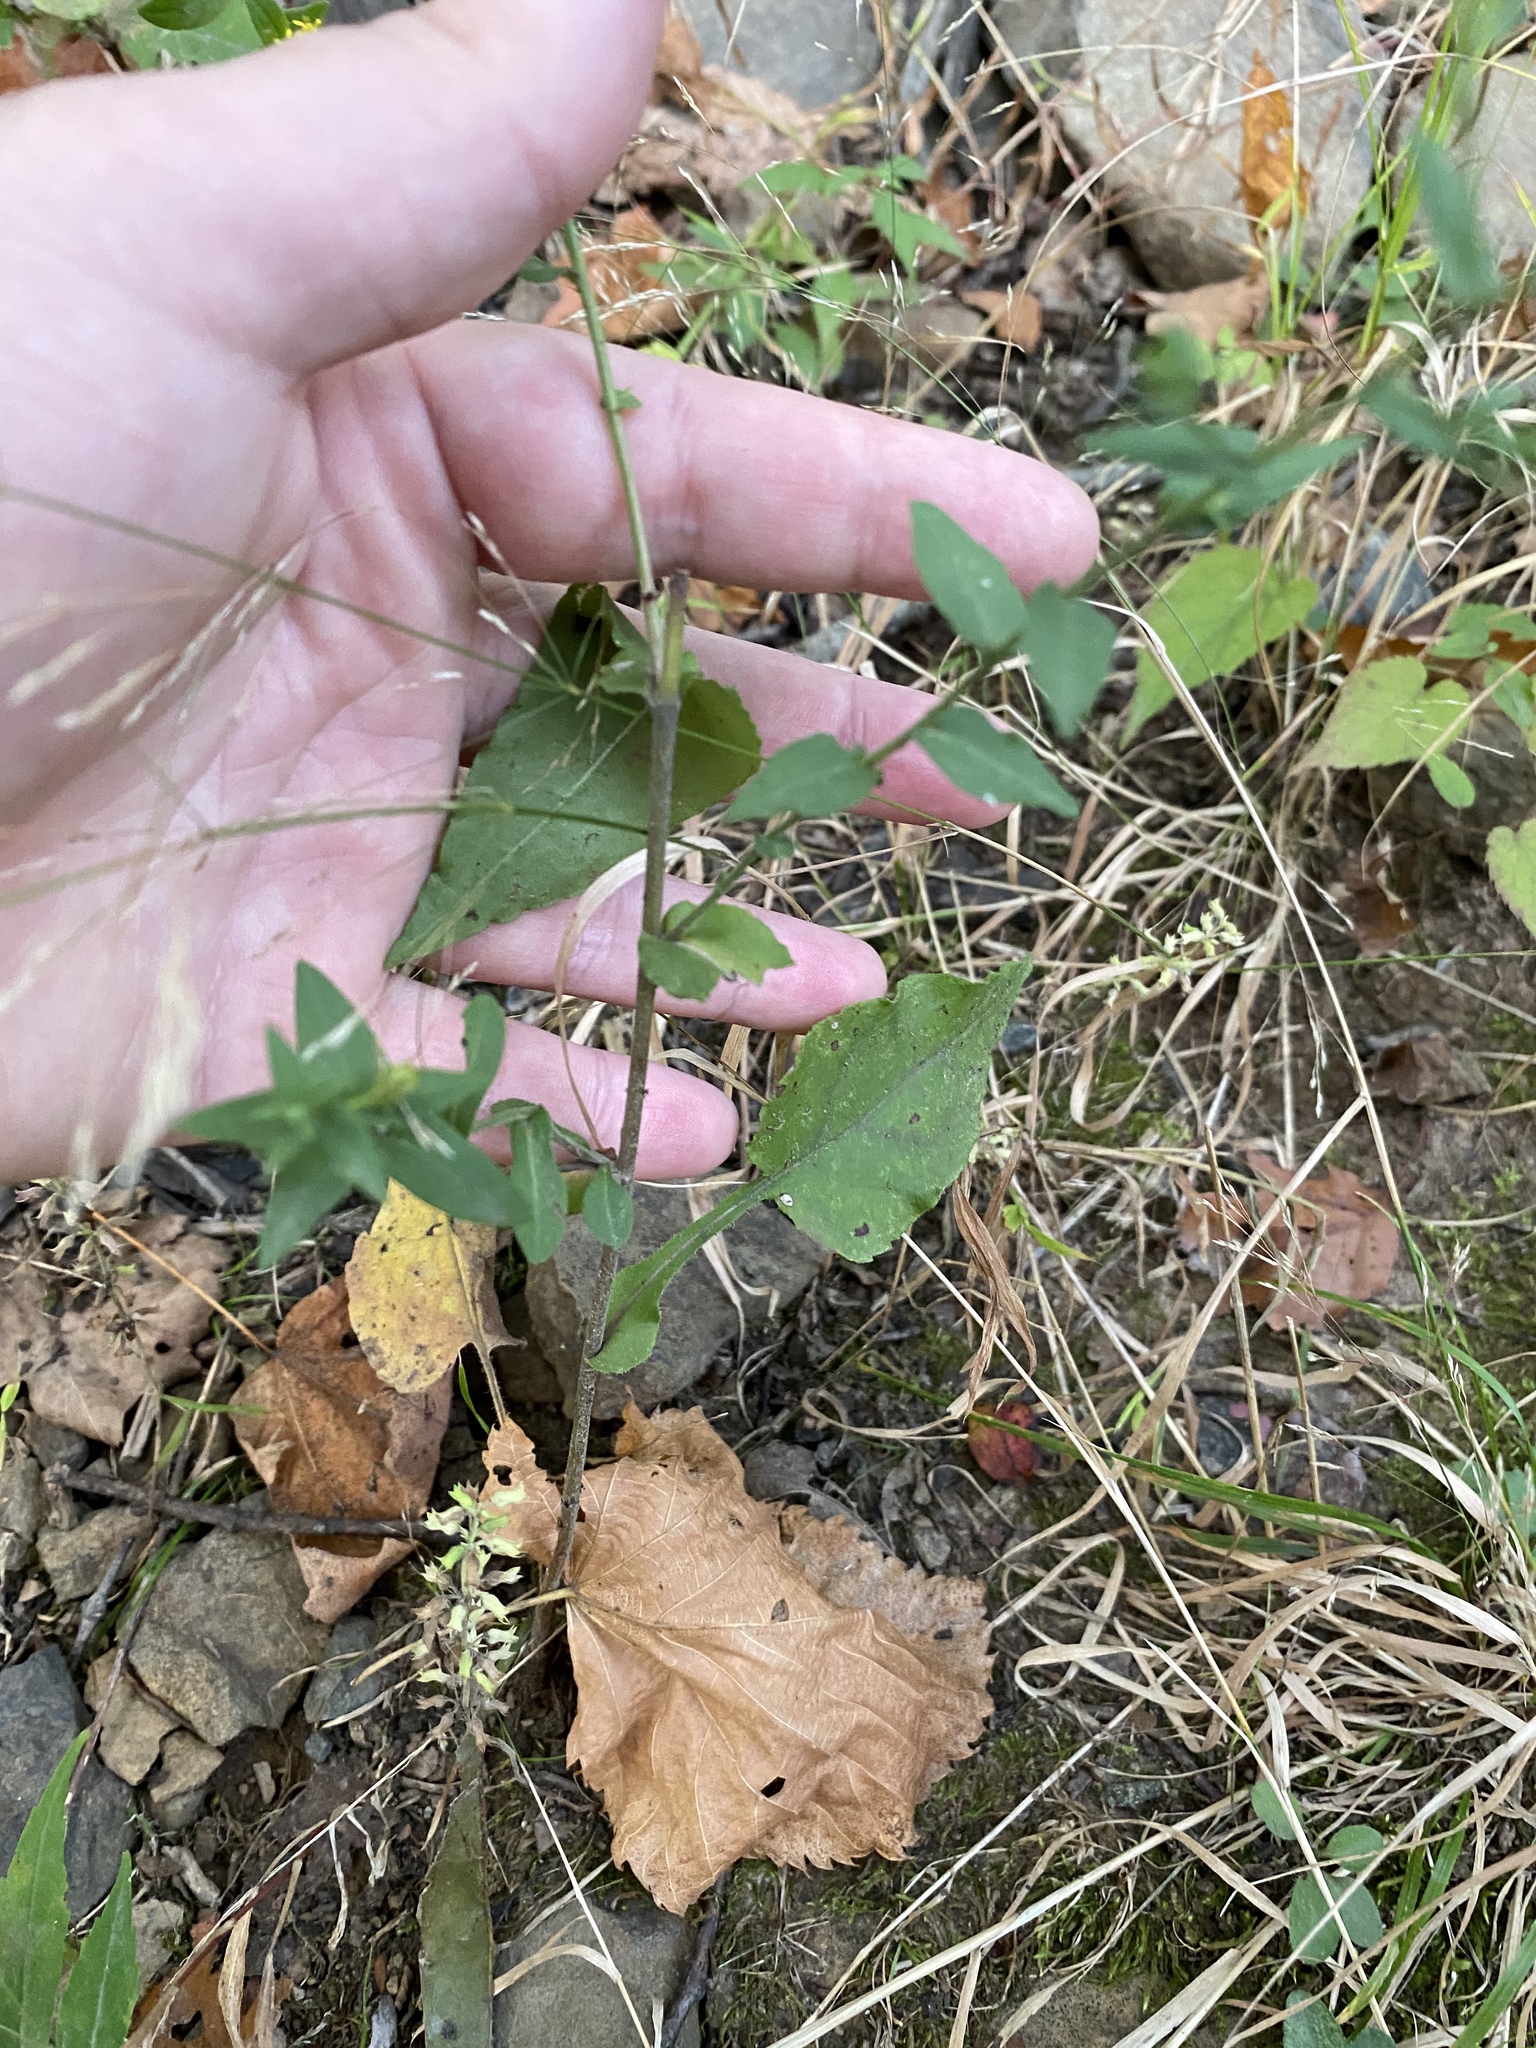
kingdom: Plantae
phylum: Tracheophyta
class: Magnoliopsida
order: Asterales
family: Asteraceae
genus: Symphyotrichum
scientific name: Symphyotrichum undulatum
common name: Clasping heart-leaf aster
